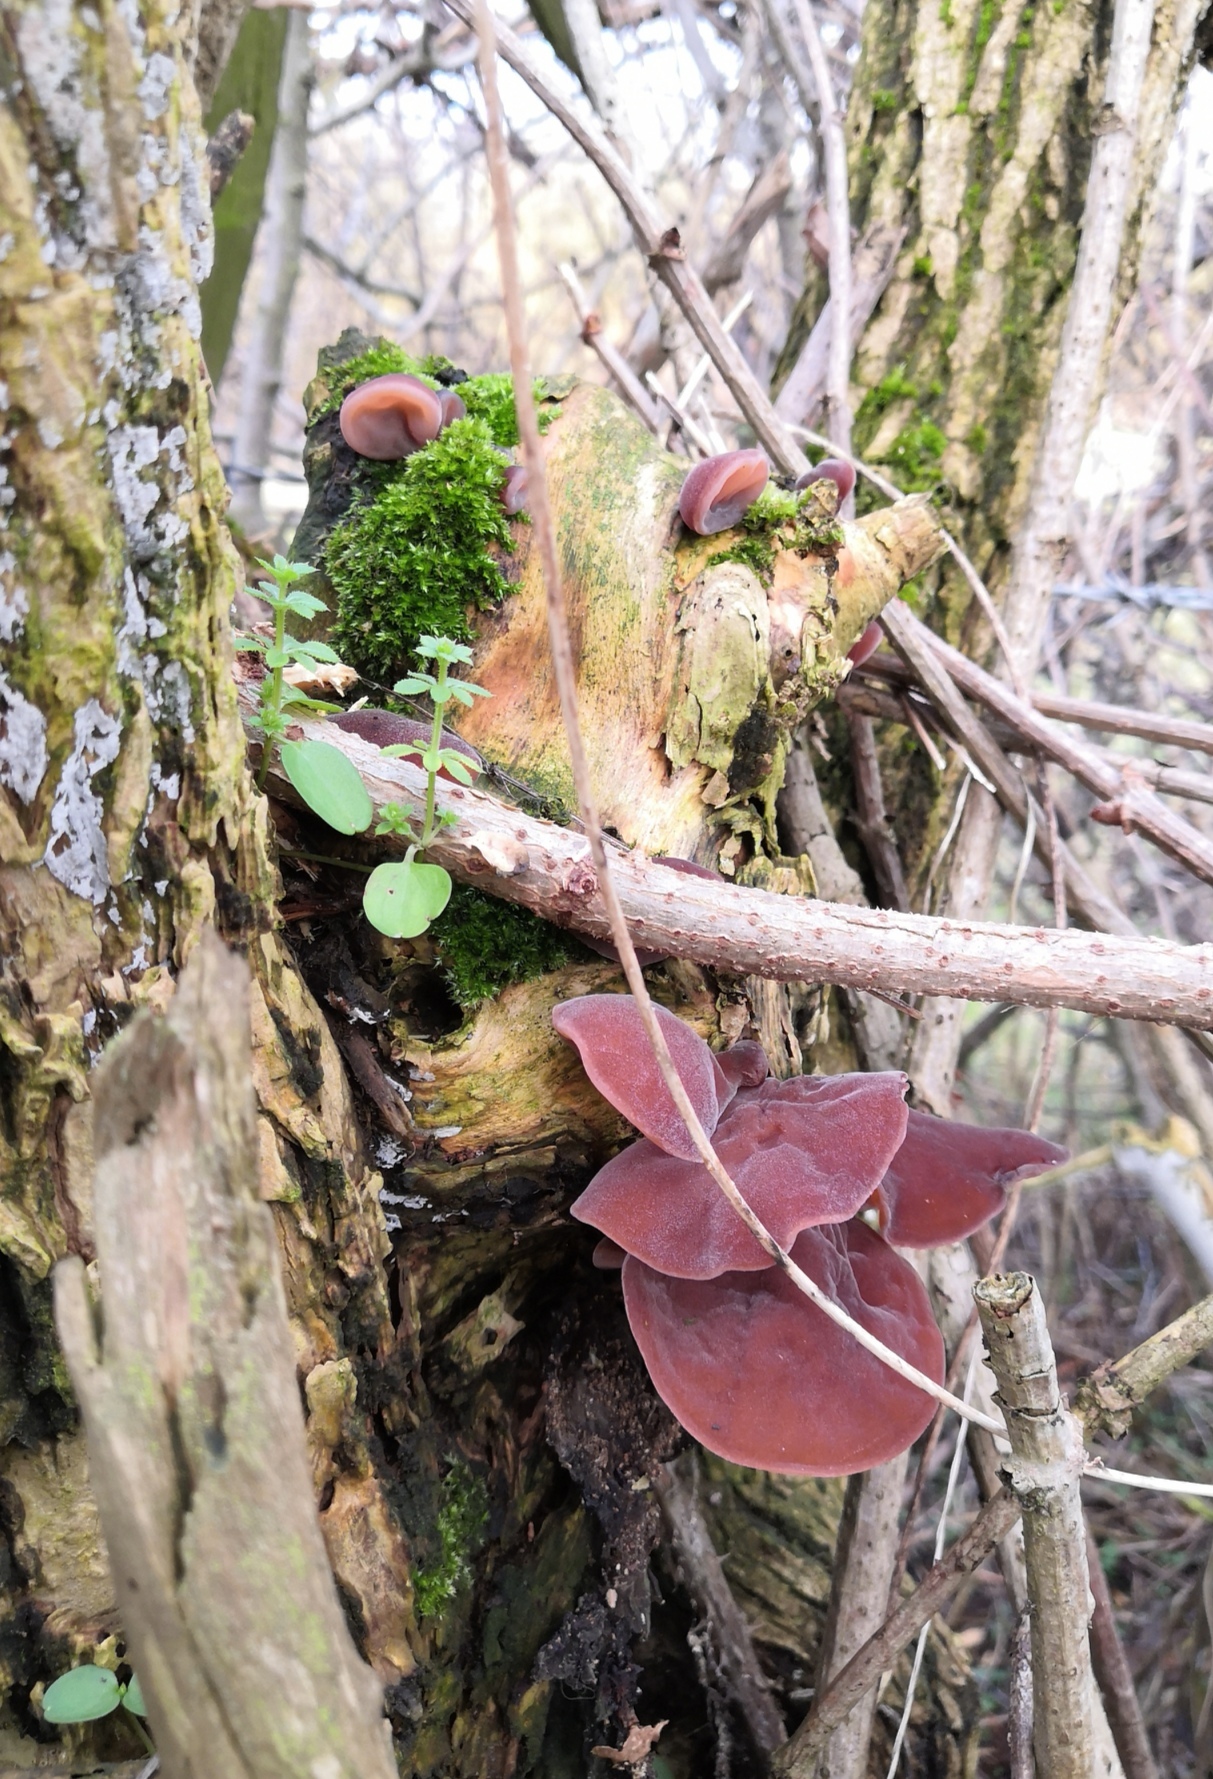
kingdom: Fungi
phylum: Basidiomycota
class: Agaricomycetes
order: Auriculariales
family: Auriculariaceae
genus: Auricularia
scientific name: Auricularia auricula-judae
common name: Jelly ear
